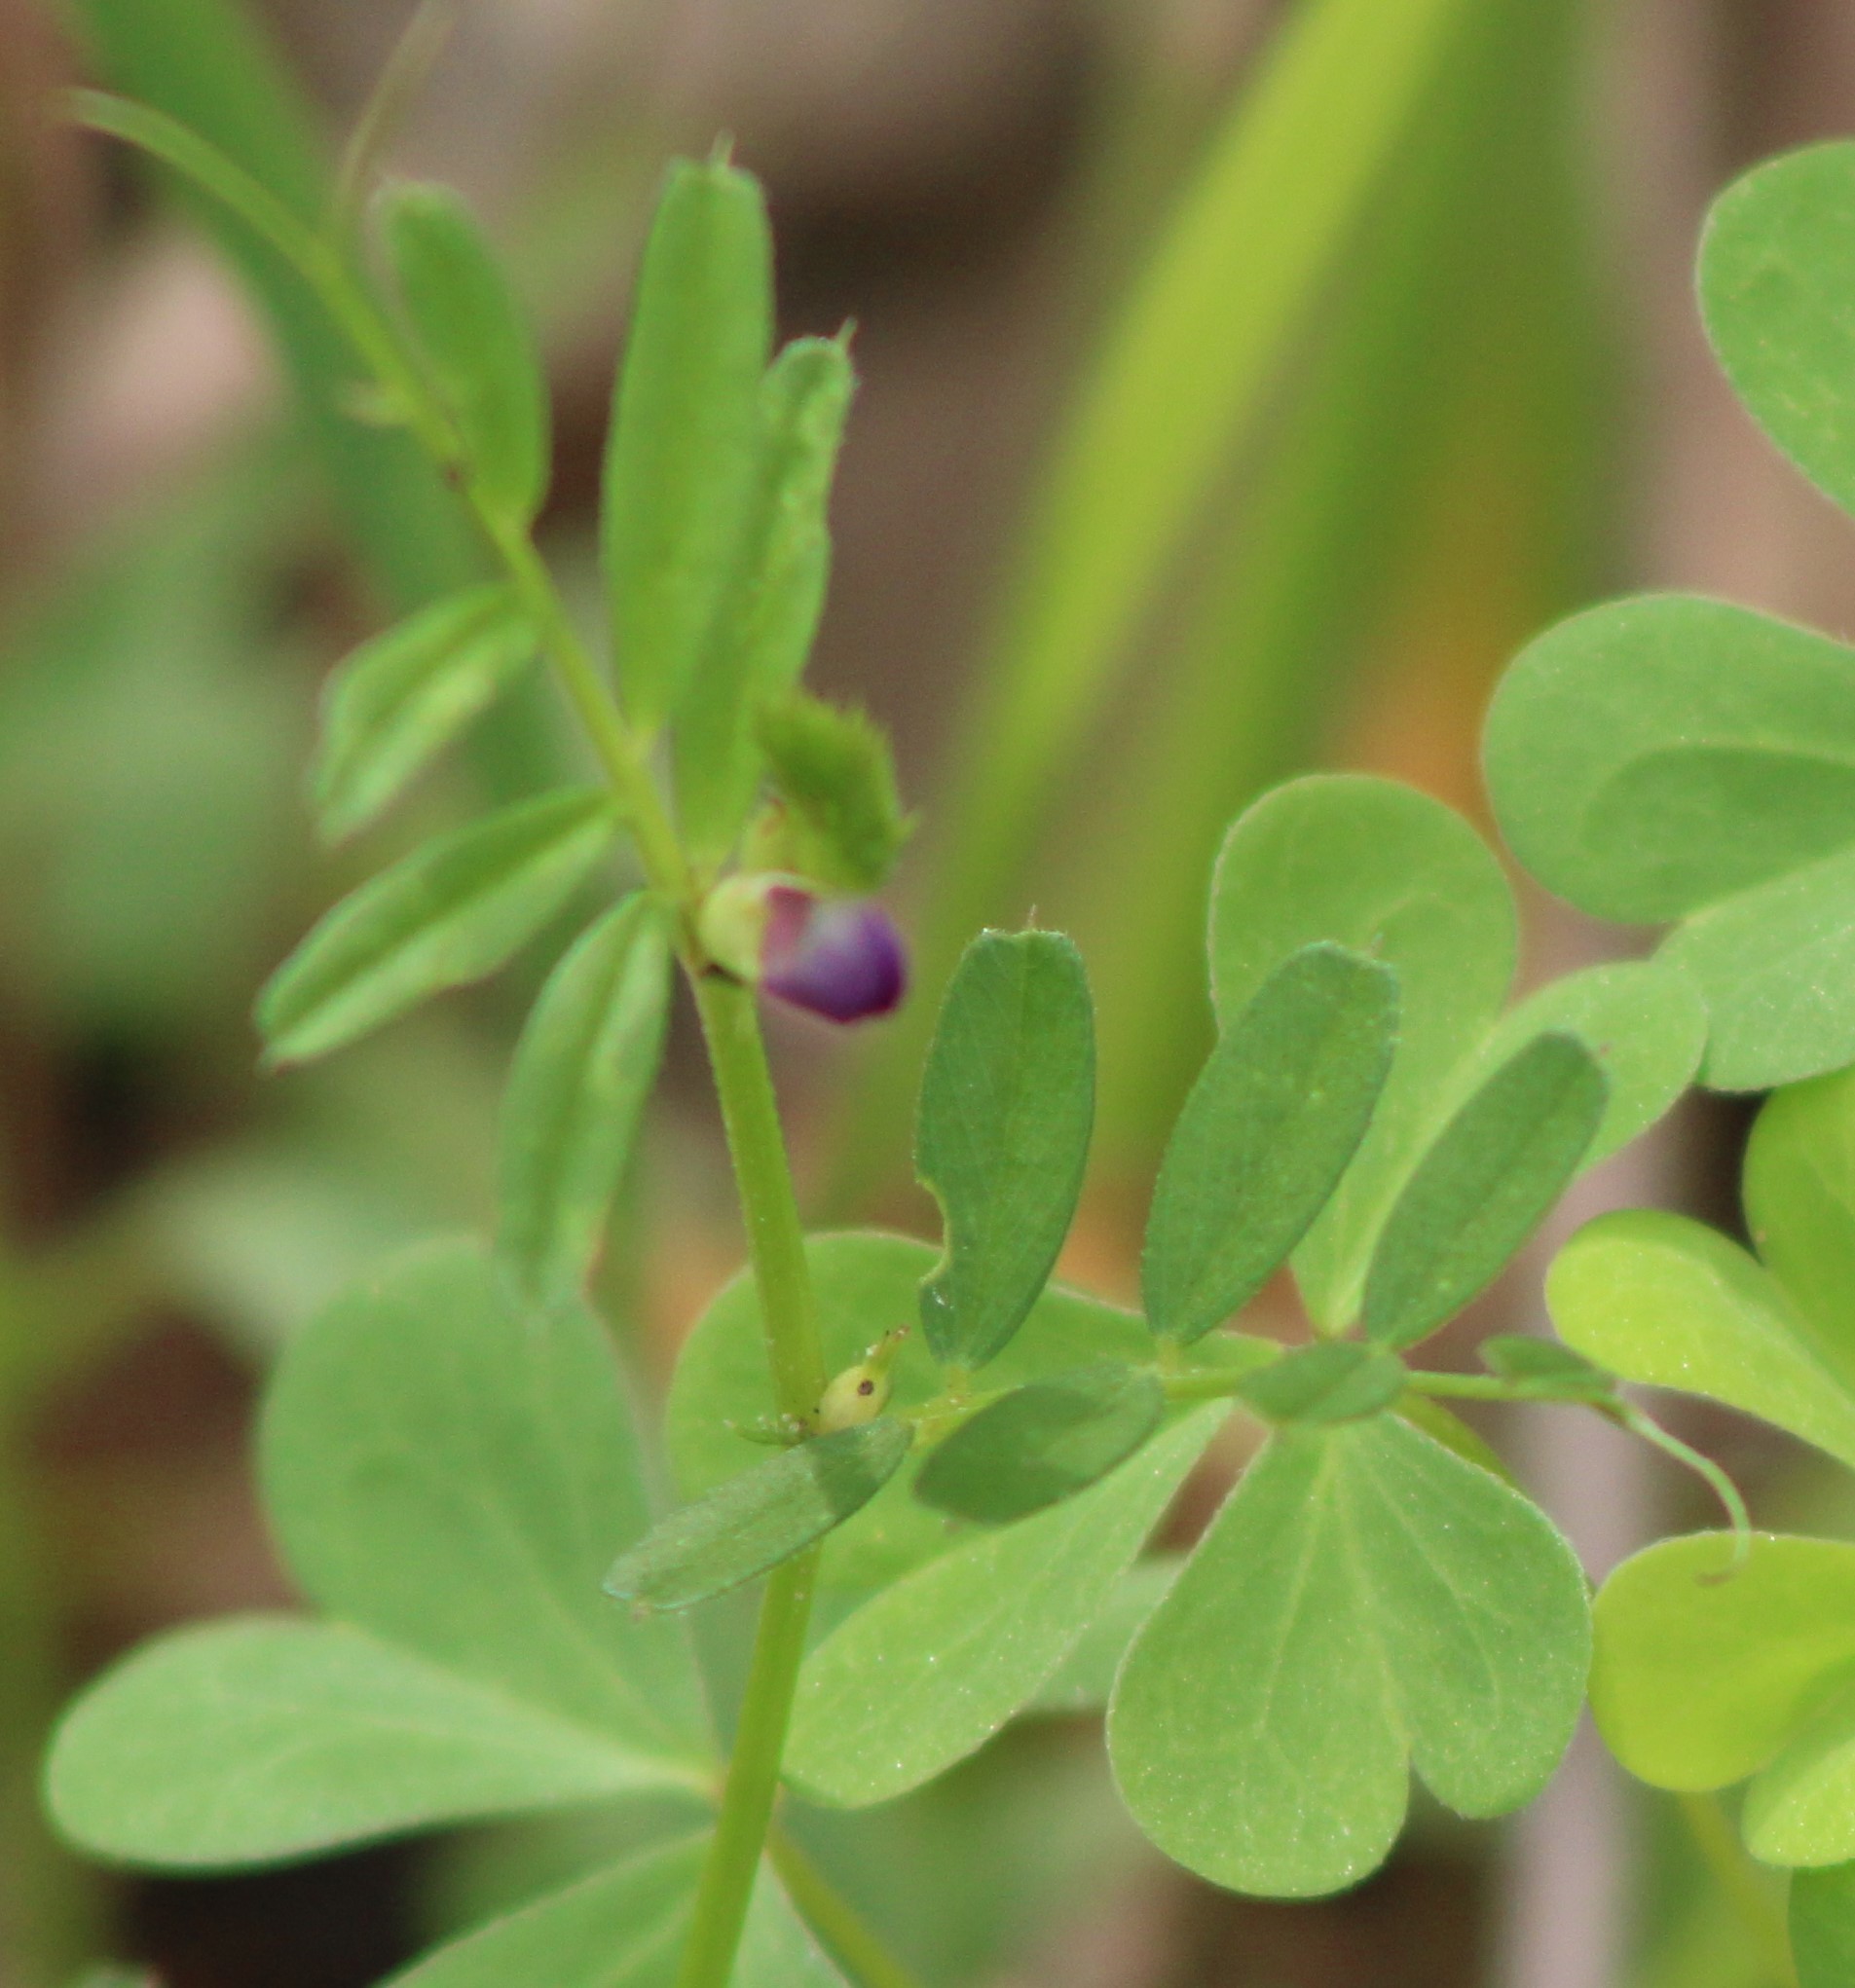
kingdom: Plantae
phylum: Tracheophyta
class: Magnoliopsida
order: Fabales
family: Fabaceae
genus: Vicia
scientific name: Vicia sativa
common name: Garden vetch
